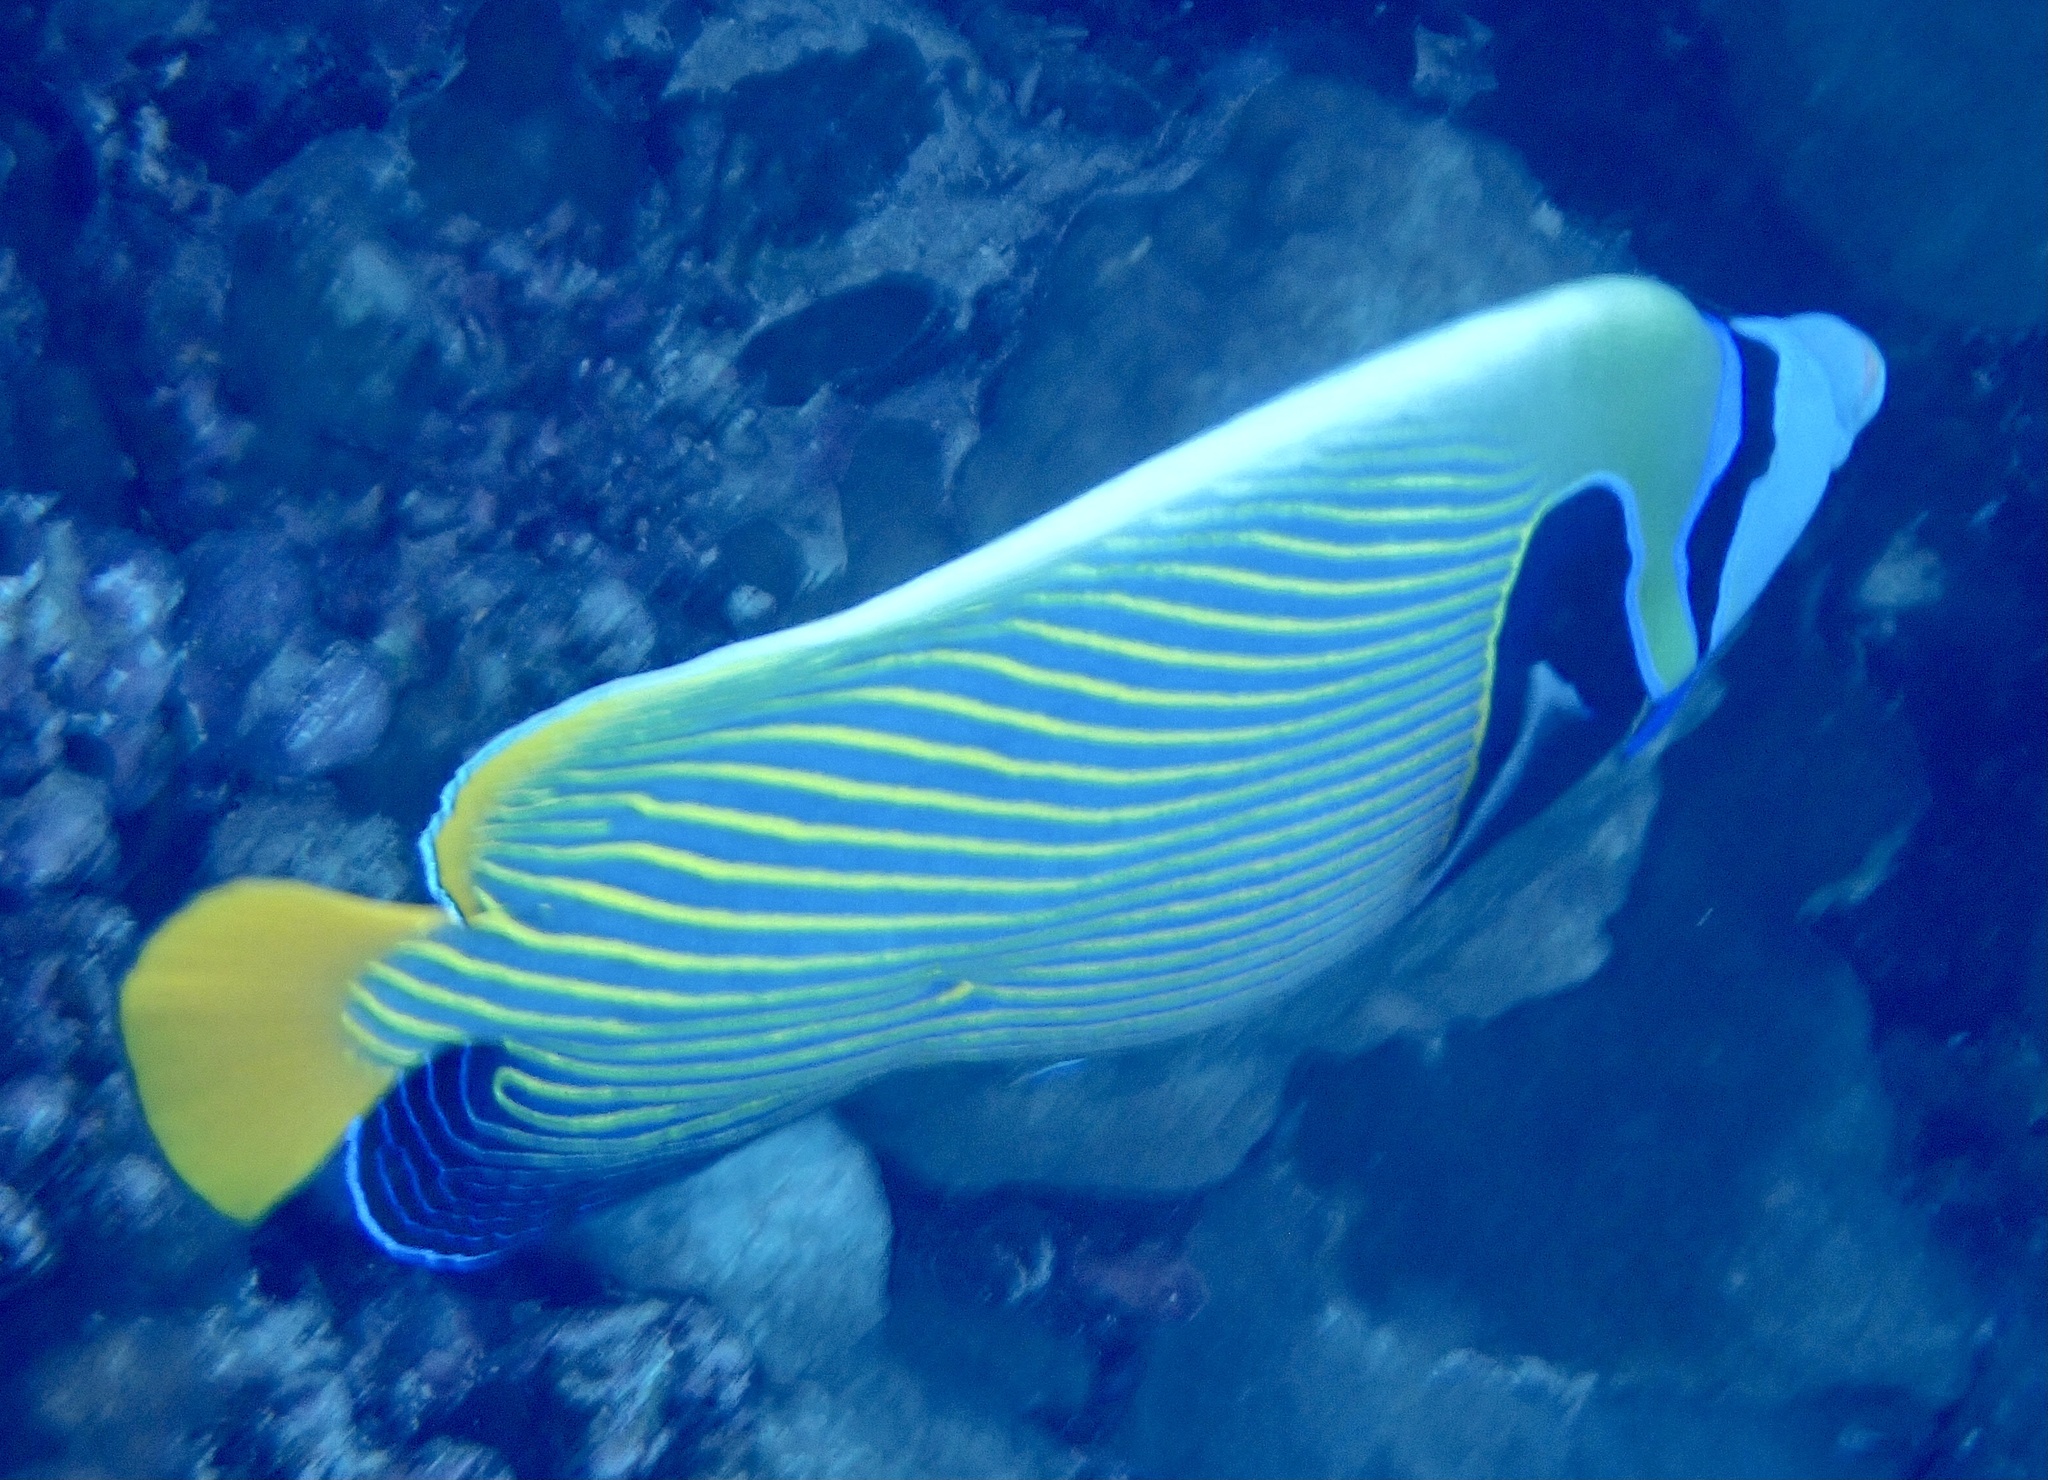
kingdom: Animalia
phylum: Chordata
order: Perciformes
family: Pomacanthidae
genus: Pomacanthus
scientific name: Pomacanthus imperator
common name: Emperor angelfish
